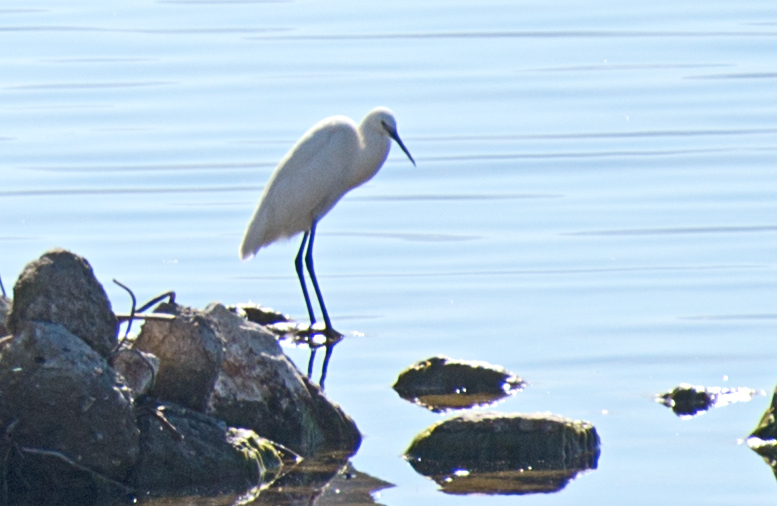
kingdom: Animalia
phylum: Chordata
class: Aves
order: Pelecaniformes
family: Ardeidae
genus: Egretta
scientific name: Egretta garzetta
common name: Little egret
